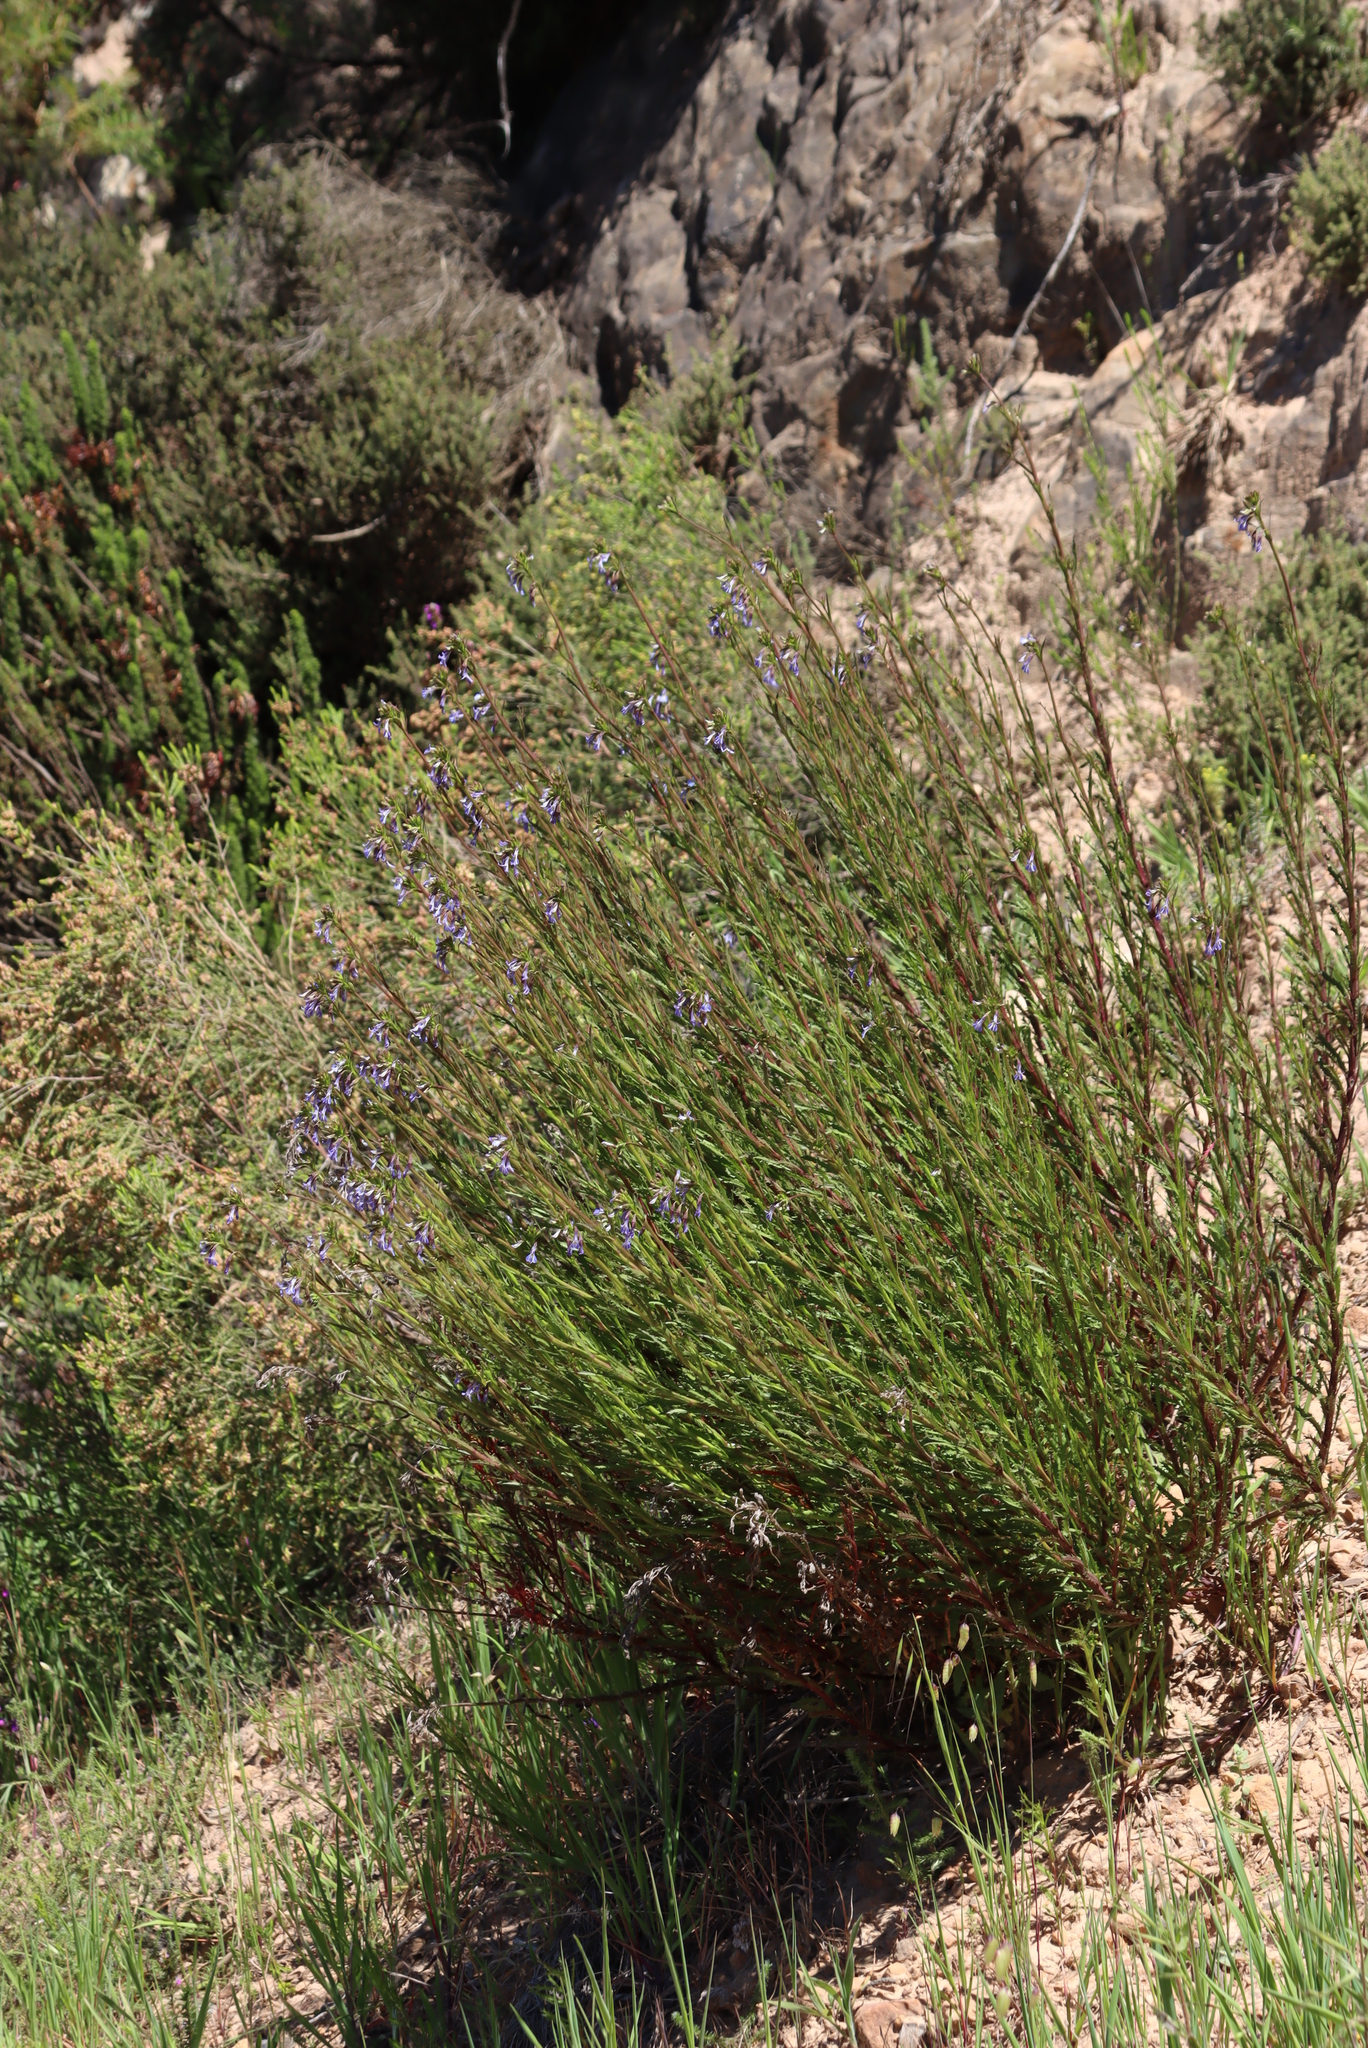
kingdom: Plantae
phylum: Tracheophyta
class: Magnoliopsida
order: Asterales
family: Campanulaceae
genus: Lobelia
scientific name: Lobelia comosa
